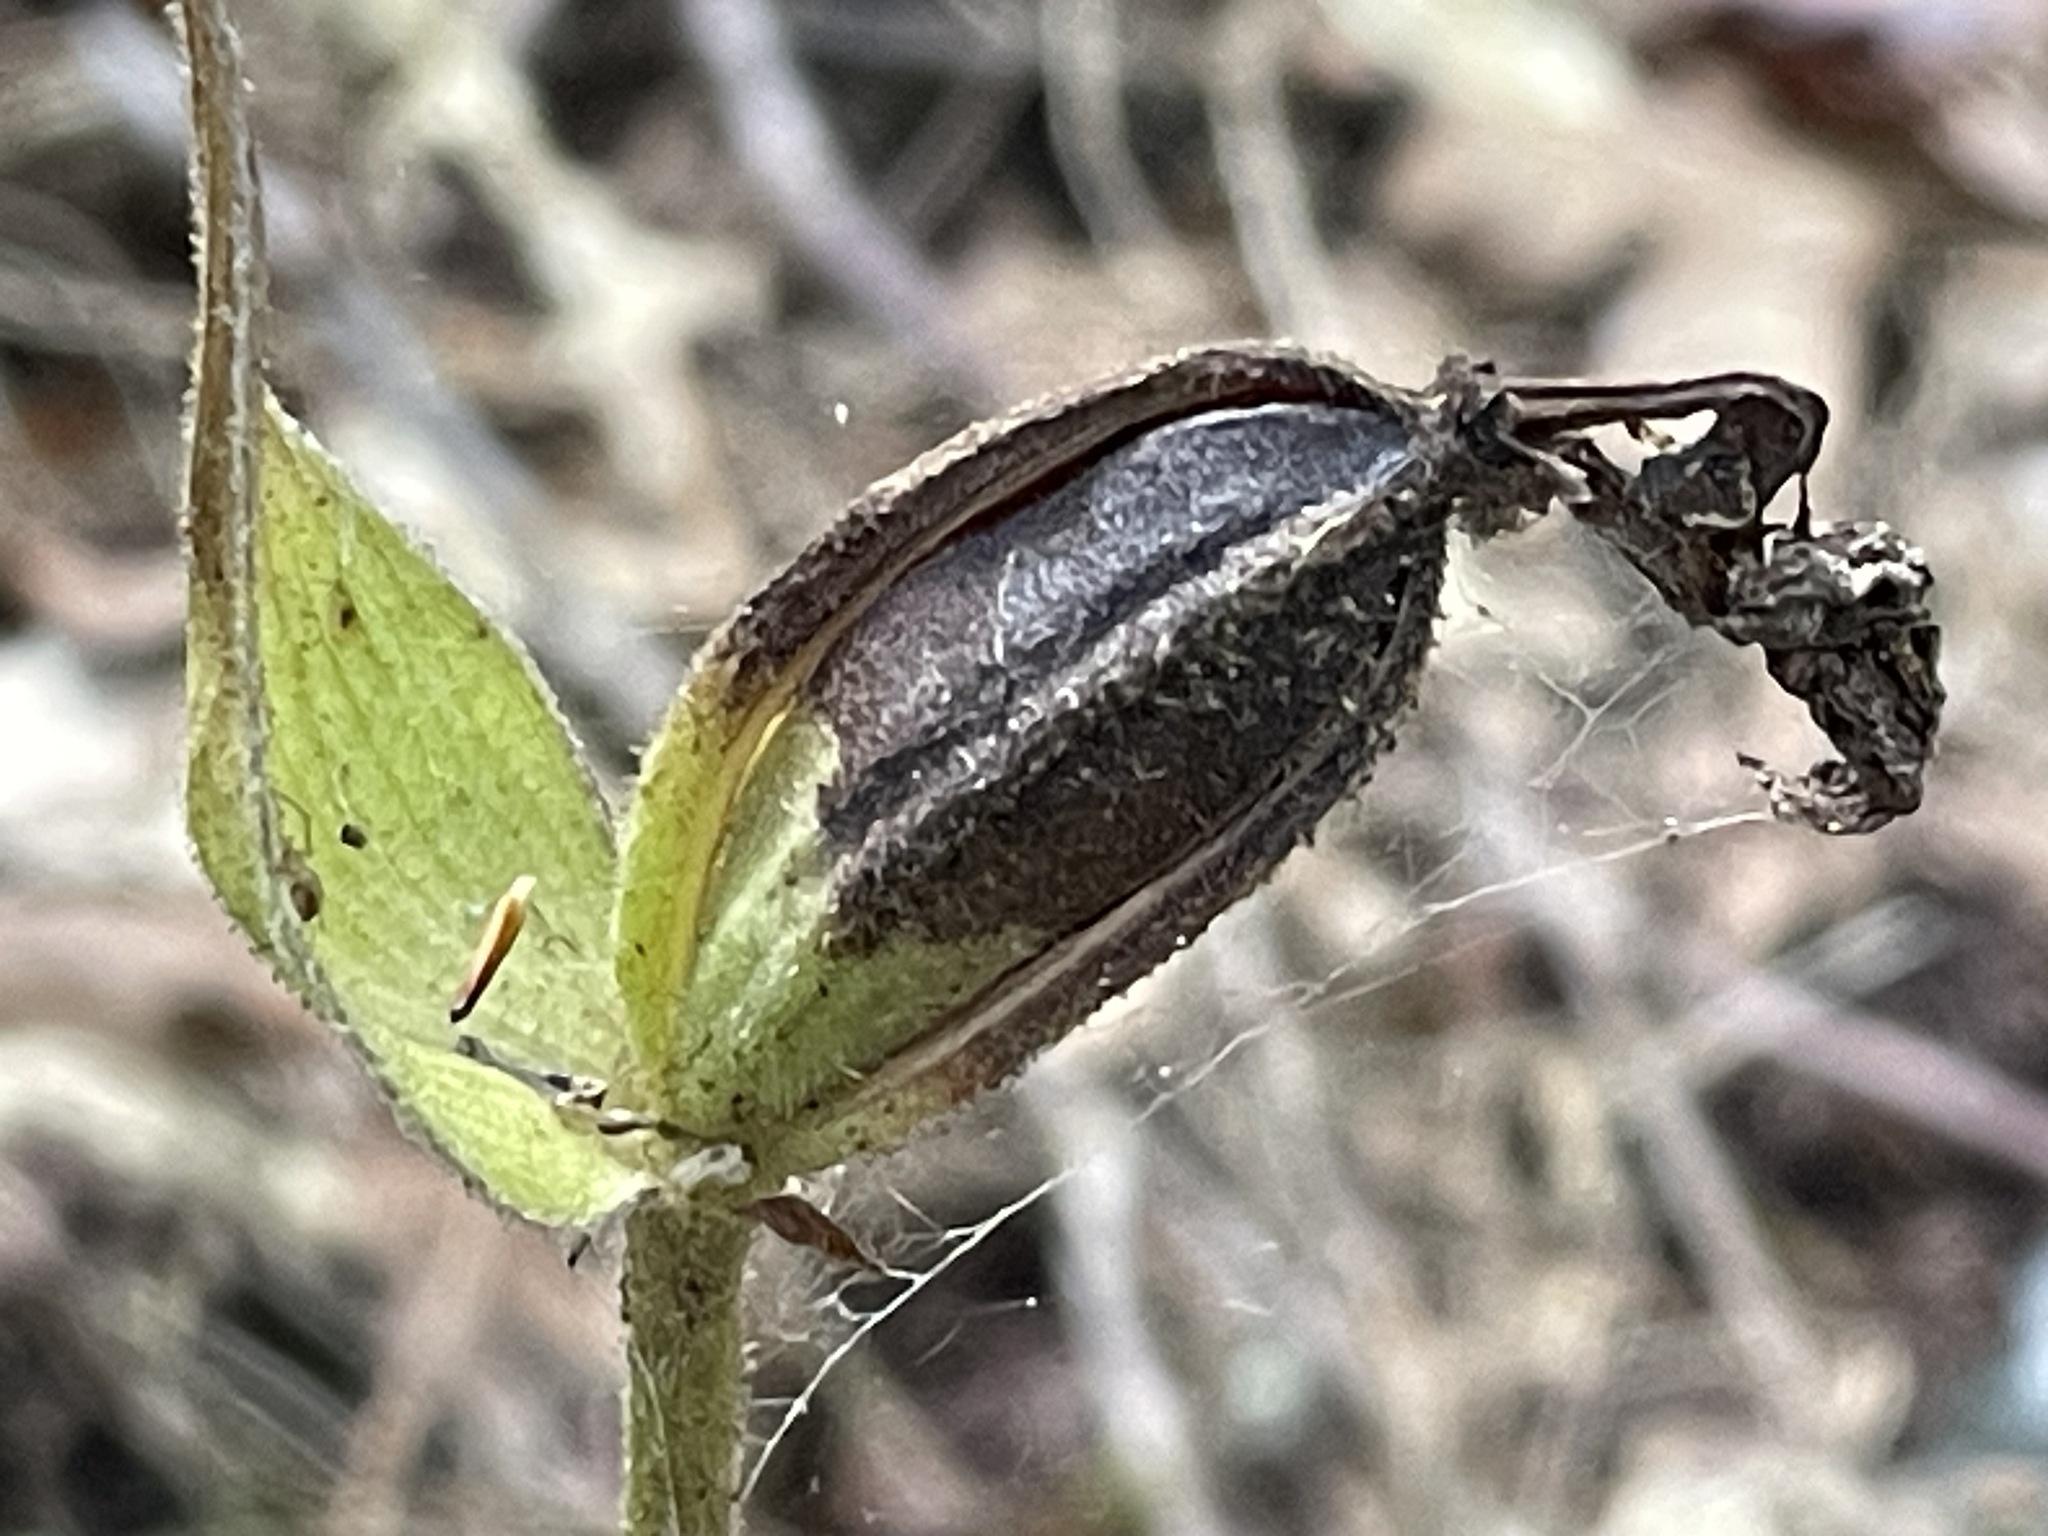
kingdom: Plantae
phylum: Tracheophyta
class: Liliopsida
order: Asparagales
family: Orchidaceae
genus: Cypripedium
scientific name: Cypripedium acaule
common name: Pink lady's-slipper
